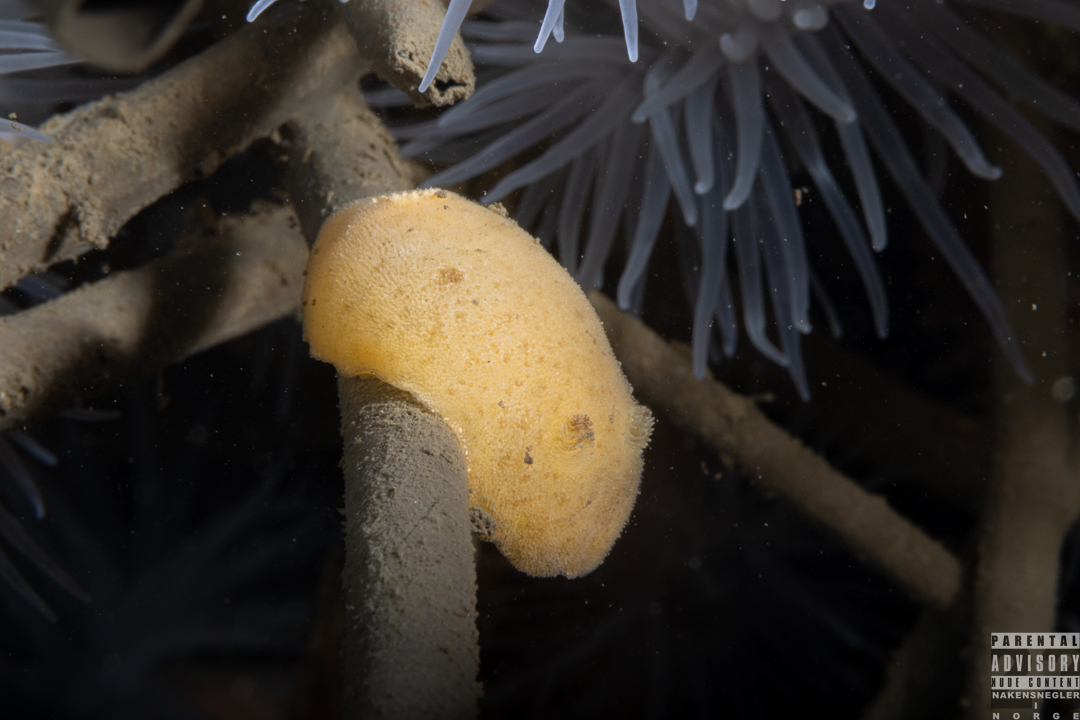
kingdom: Animalia
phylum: Mollusca
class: Gastropoda
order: Nudibranchia
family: Discodorididae
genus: Jorunna
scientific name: Jorunna tomentosa
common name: Grey sea slug
